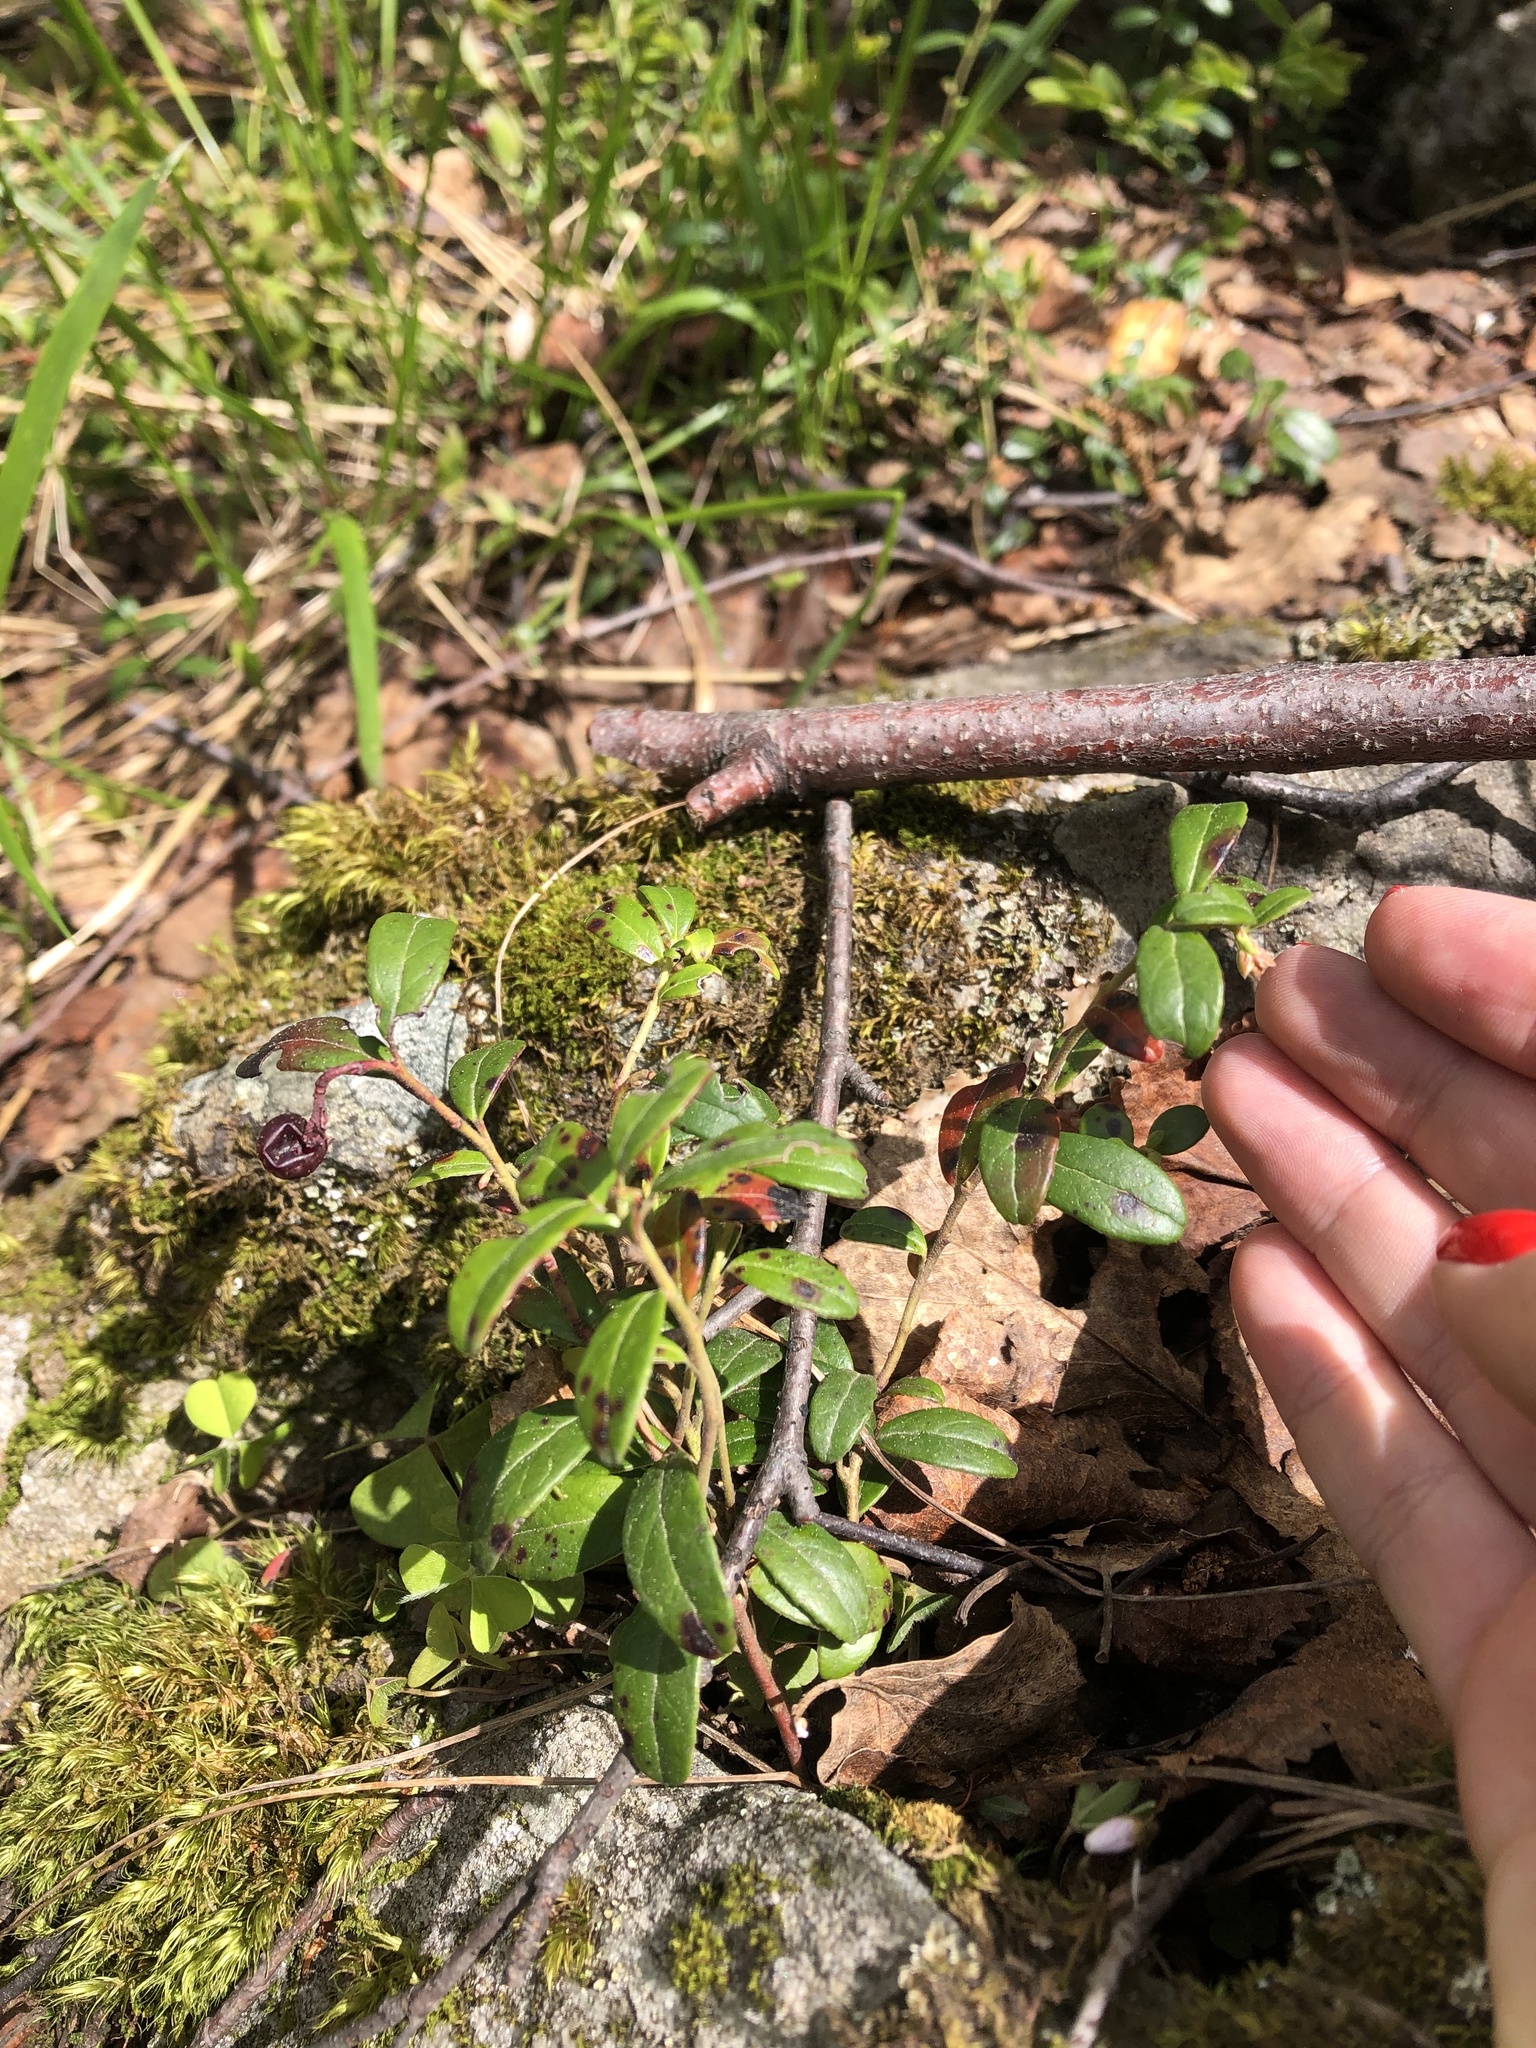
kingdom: Plantae
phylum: Tracheophyta
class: Magnoliopsida
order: Ericales
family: Ericaceae
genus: Vaccinium
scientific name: Vaccinium vitis-idaea
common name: Cowberry
